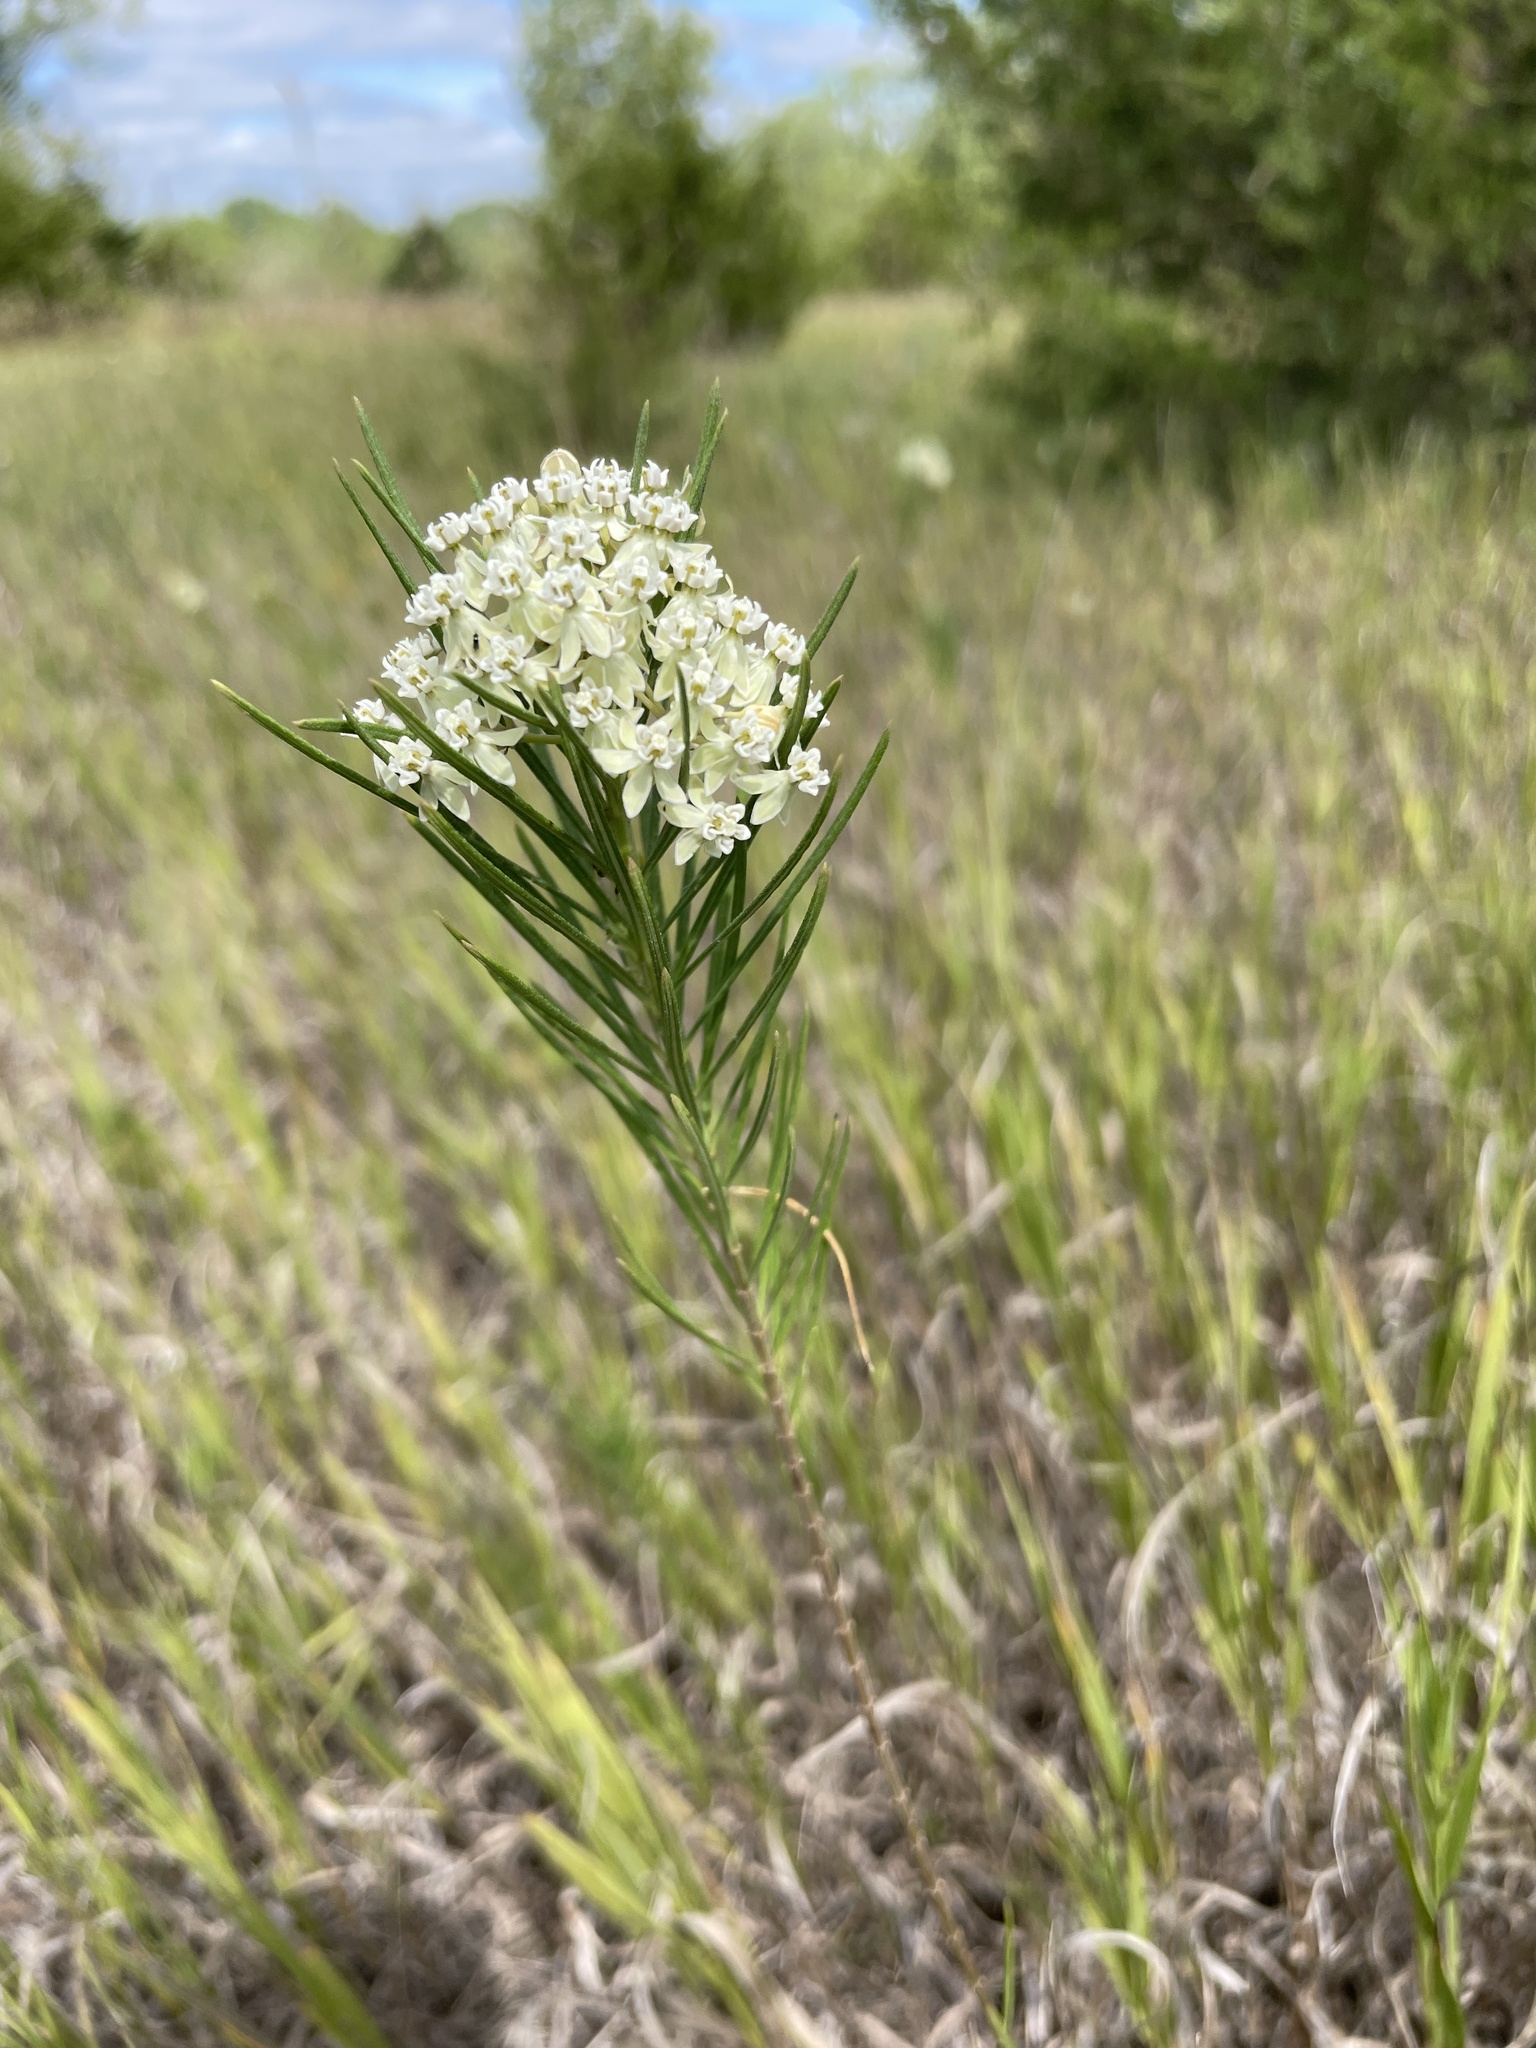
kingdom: Plantae
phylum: Tracheophyta
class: Magnoliopsida
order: Gentianales
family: Apocynaceae
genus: Asclepias
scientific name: Asclepias verticillata
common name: Eastern whorled milkweed
